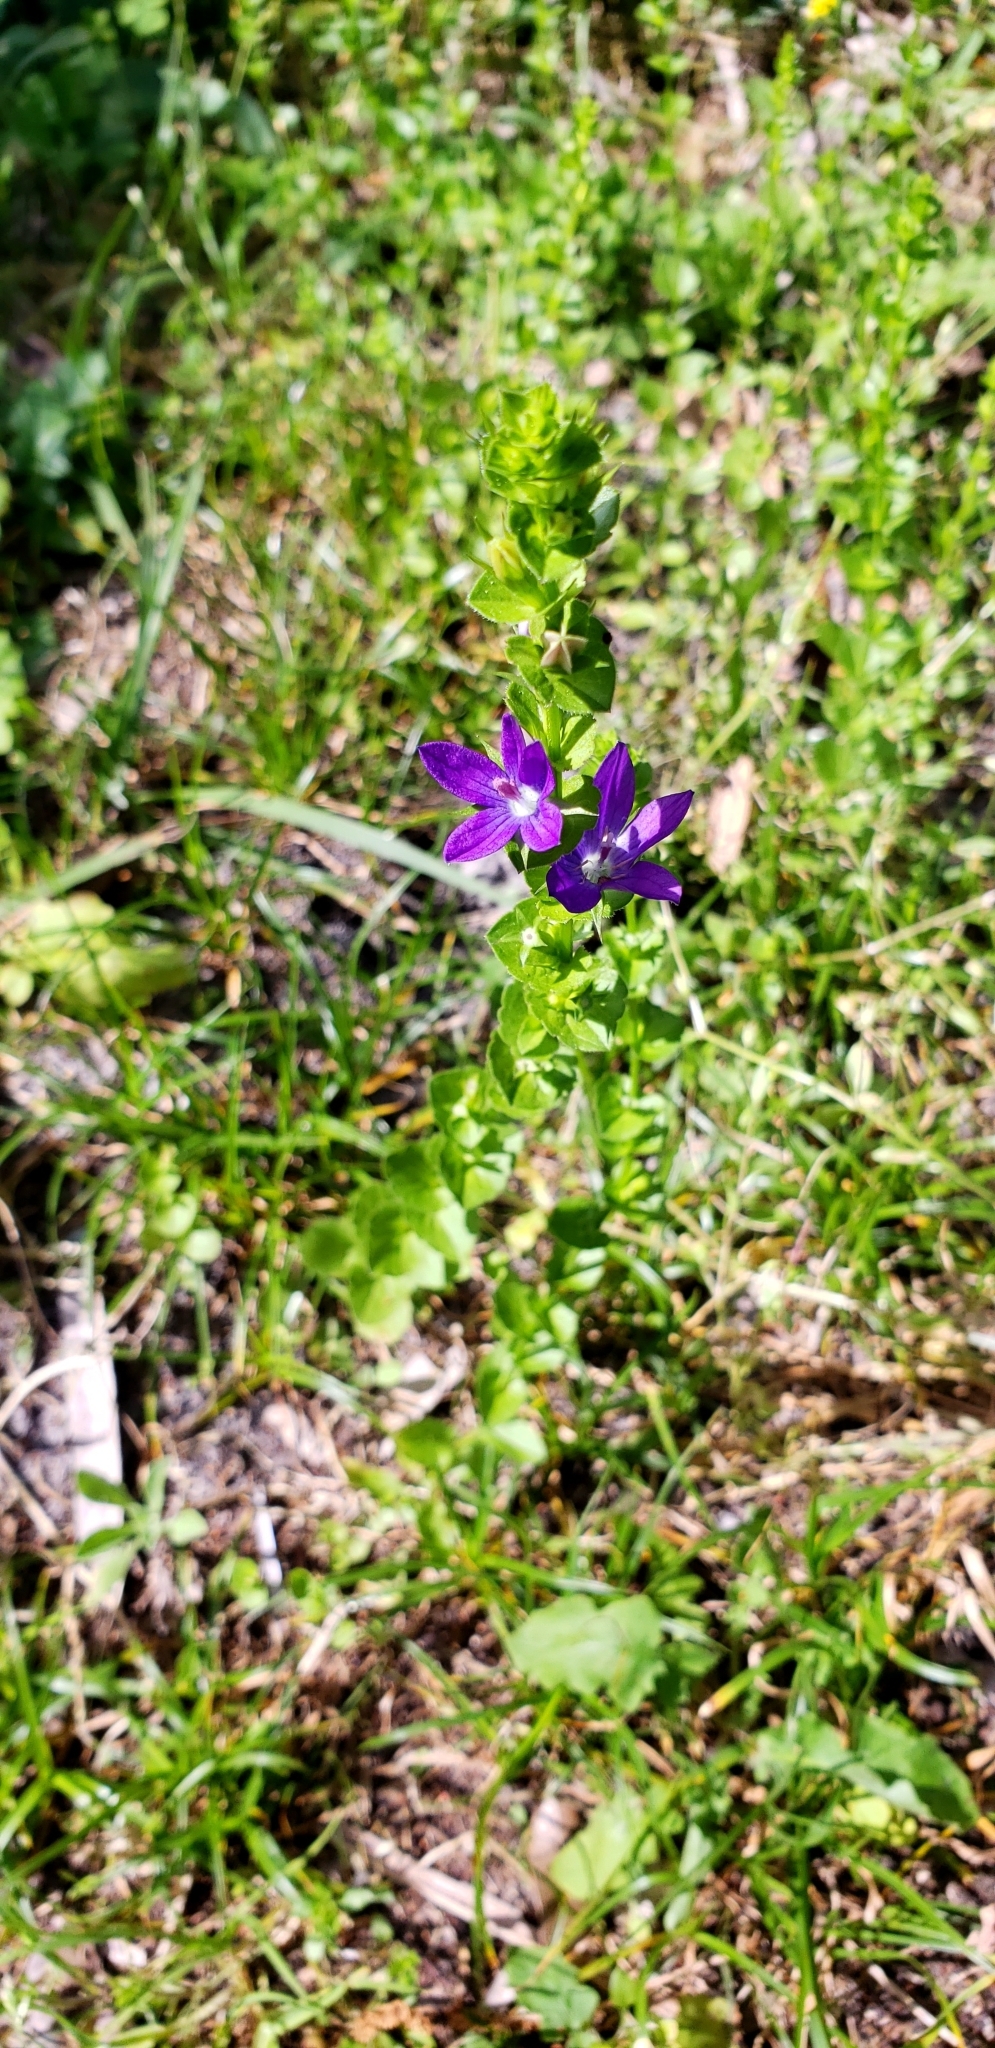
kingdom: Plantae
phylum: Tracheophyta
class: Magnoliopsida
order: Asterales
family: Campanulaceae
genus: Triodanis
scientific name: Triodanis perfoliata
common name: Clasping venus' looking-glass
